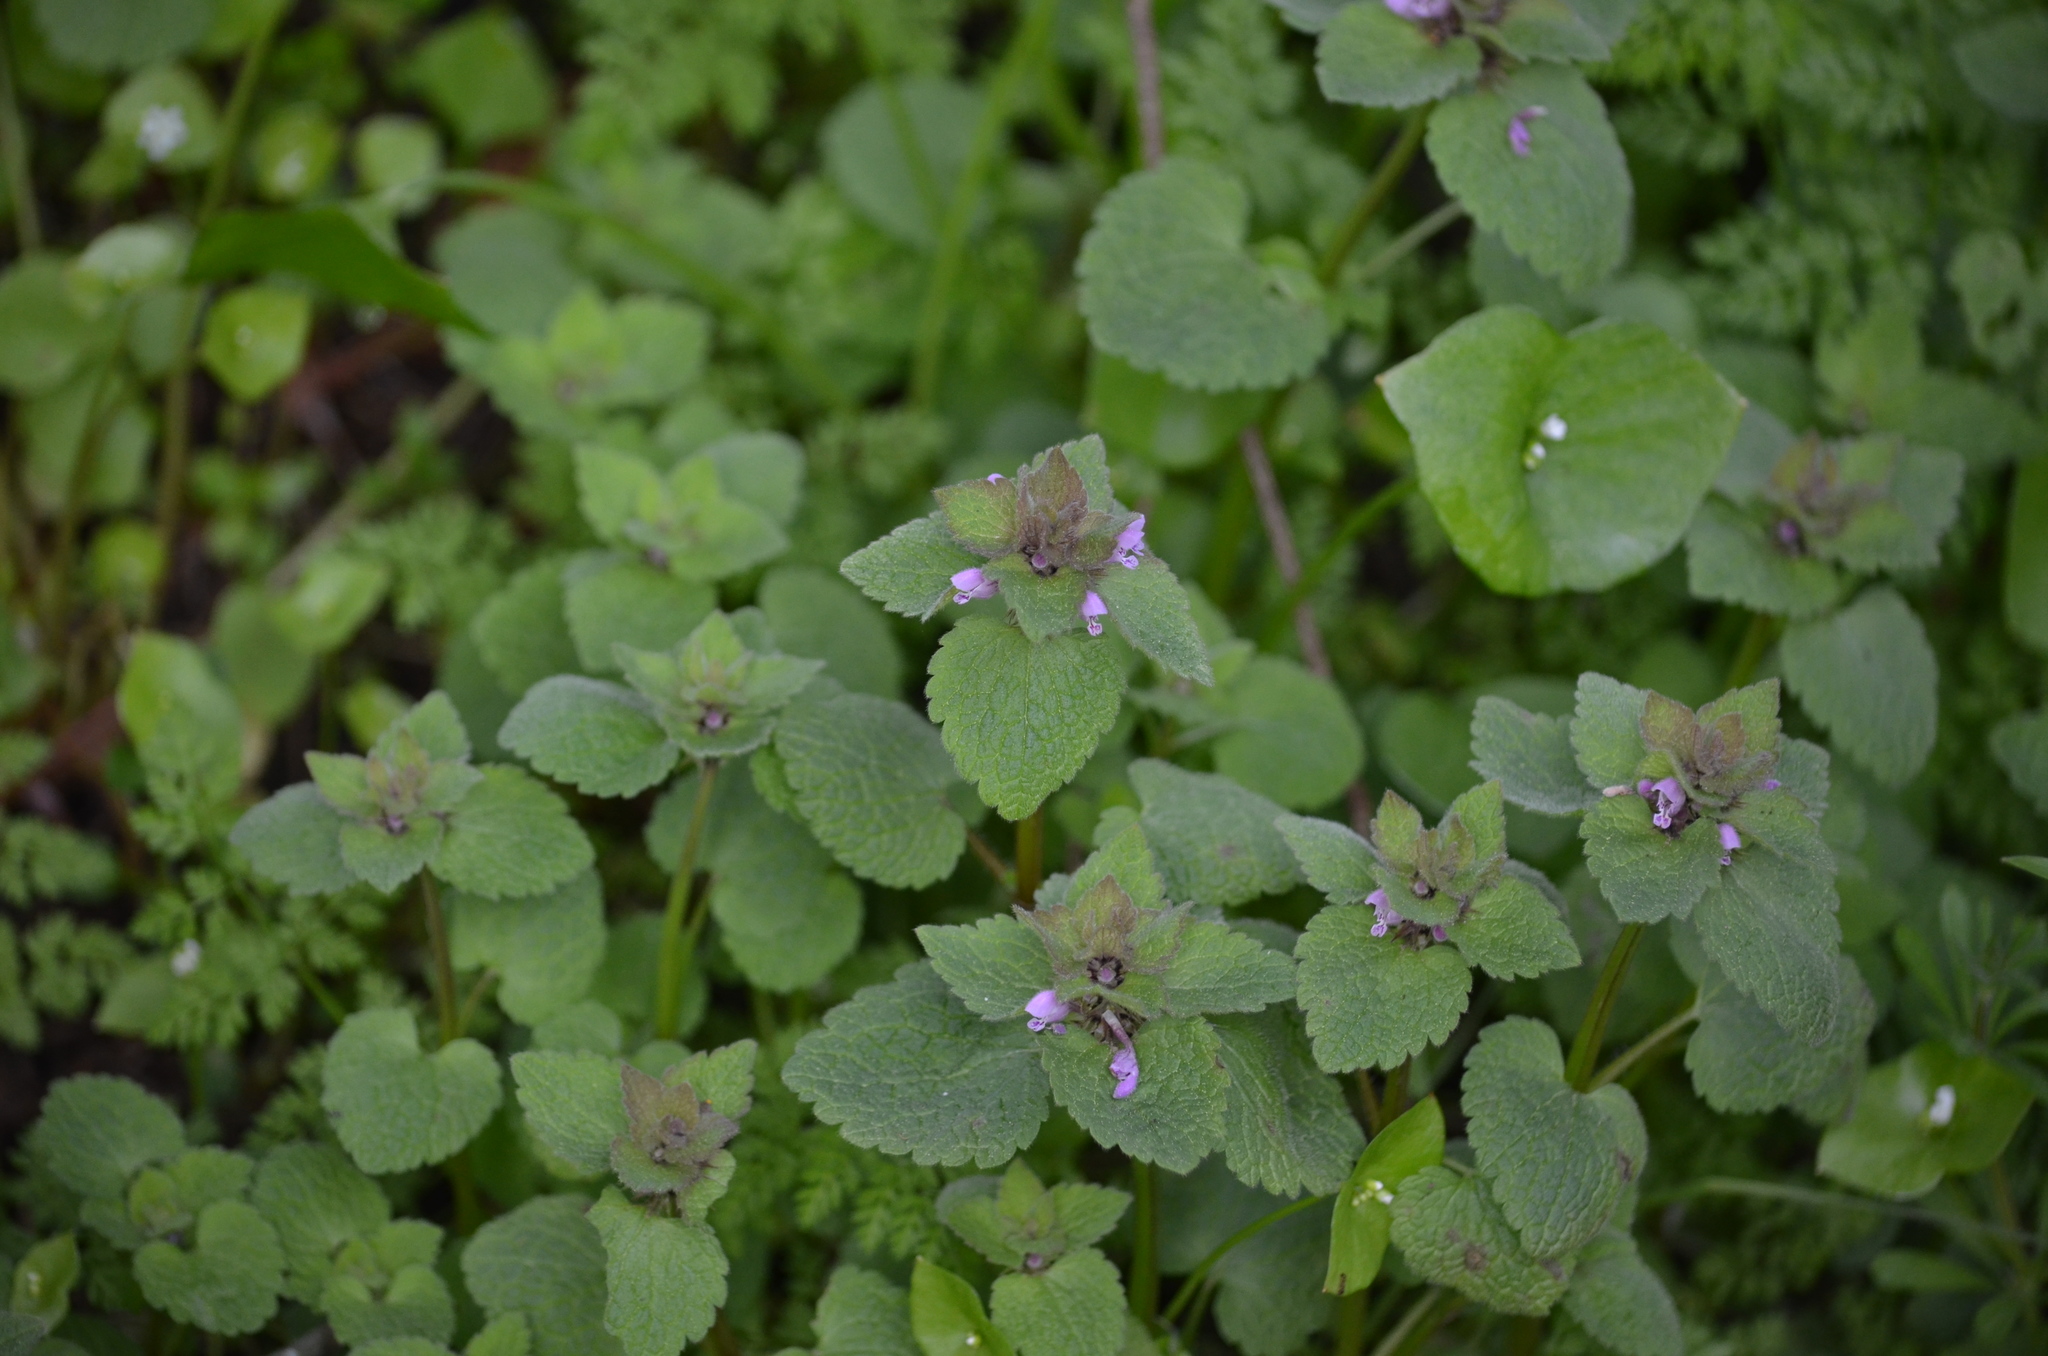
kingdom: Plantae
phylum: Tracheophyta
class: Magnoliopsida
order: Lamiales
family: Lamiaceae
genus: Lamium
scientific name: Lamium purpureum
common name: Red dead-nettle
